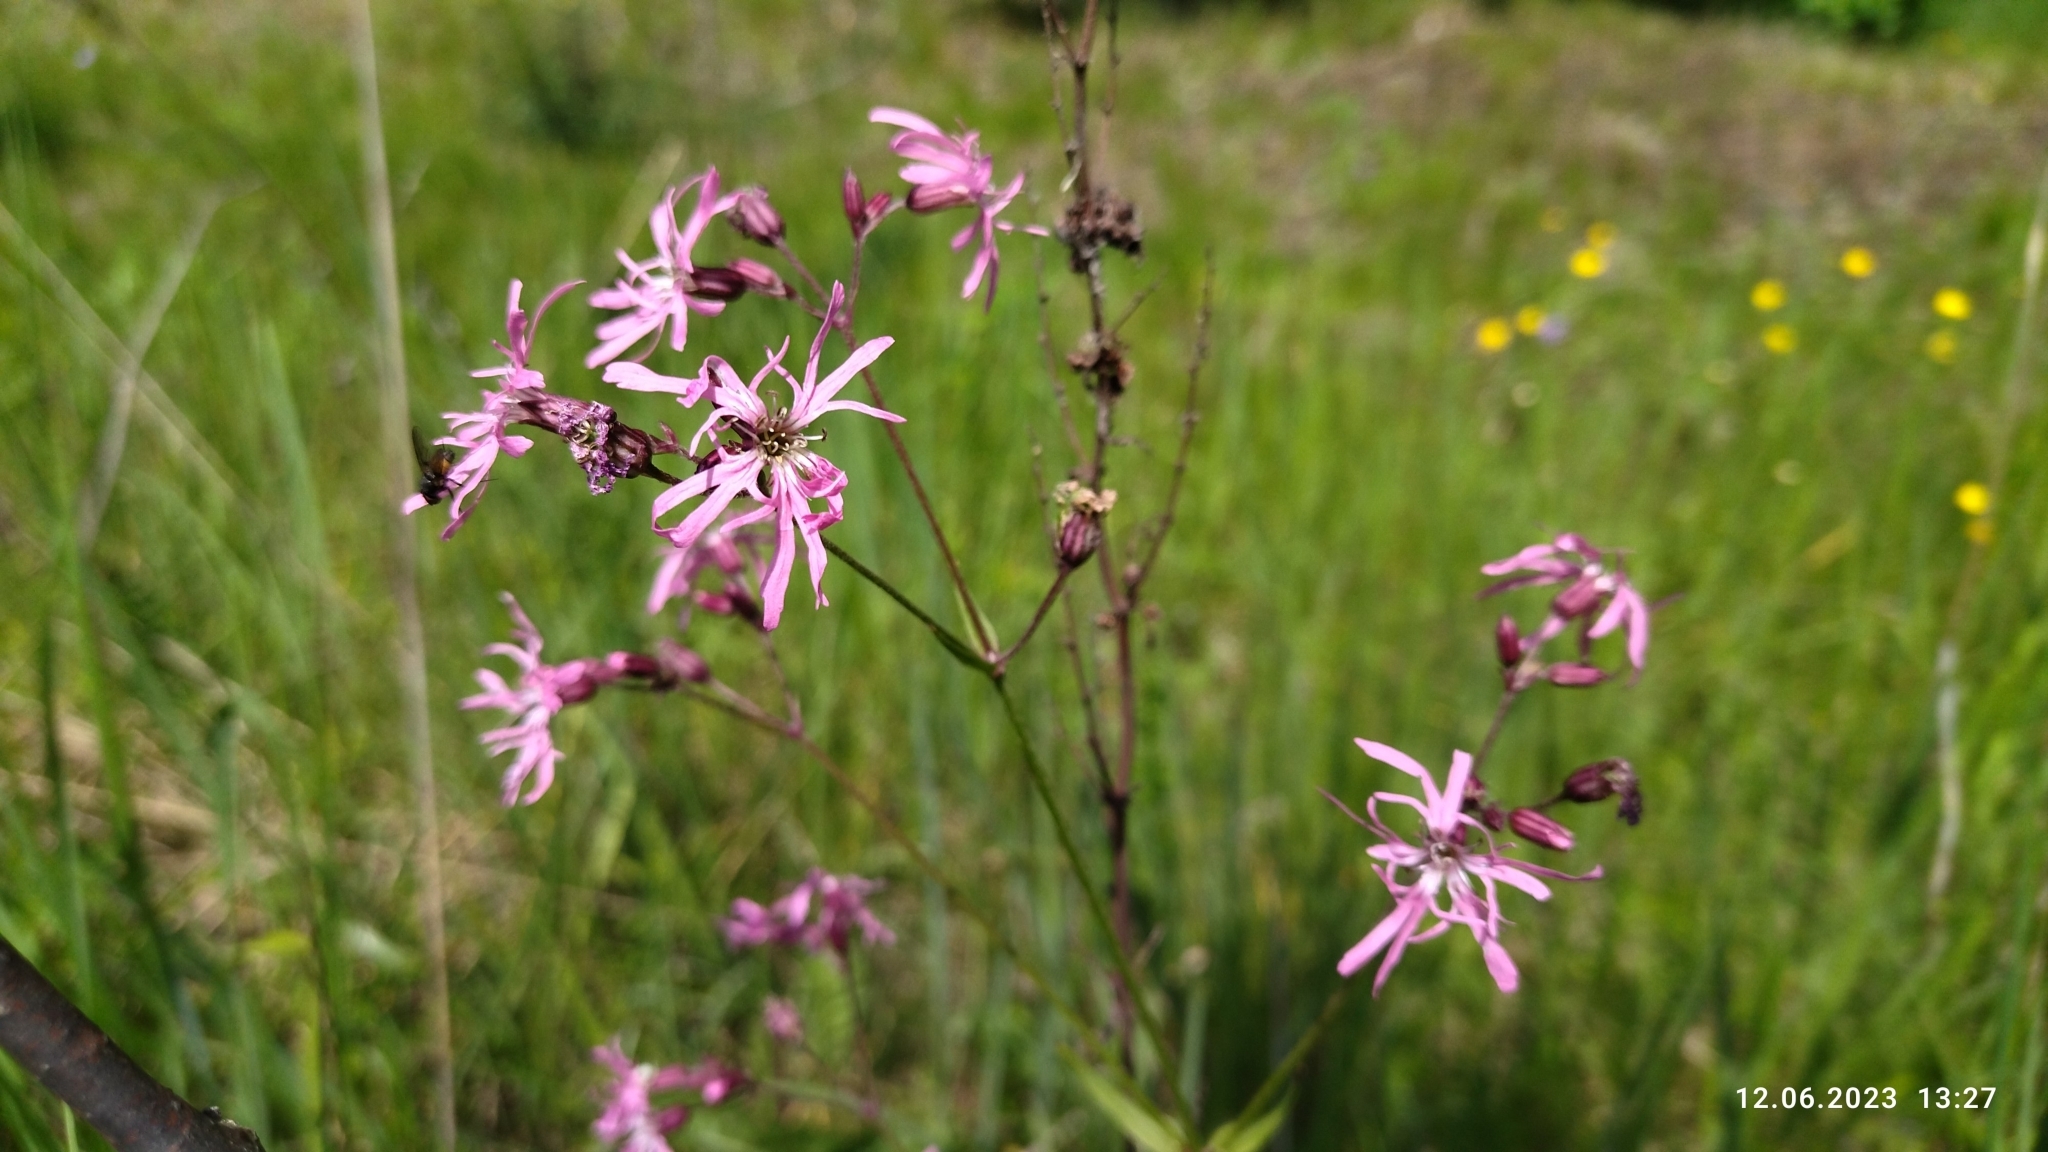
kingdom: Plantae
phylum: Tracheophyta
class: Magnoliopsida
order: Caryophyllales
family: Caryophyllaceae
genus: Silene
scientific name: Silene flos-cuculi
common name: Ragged-robin
